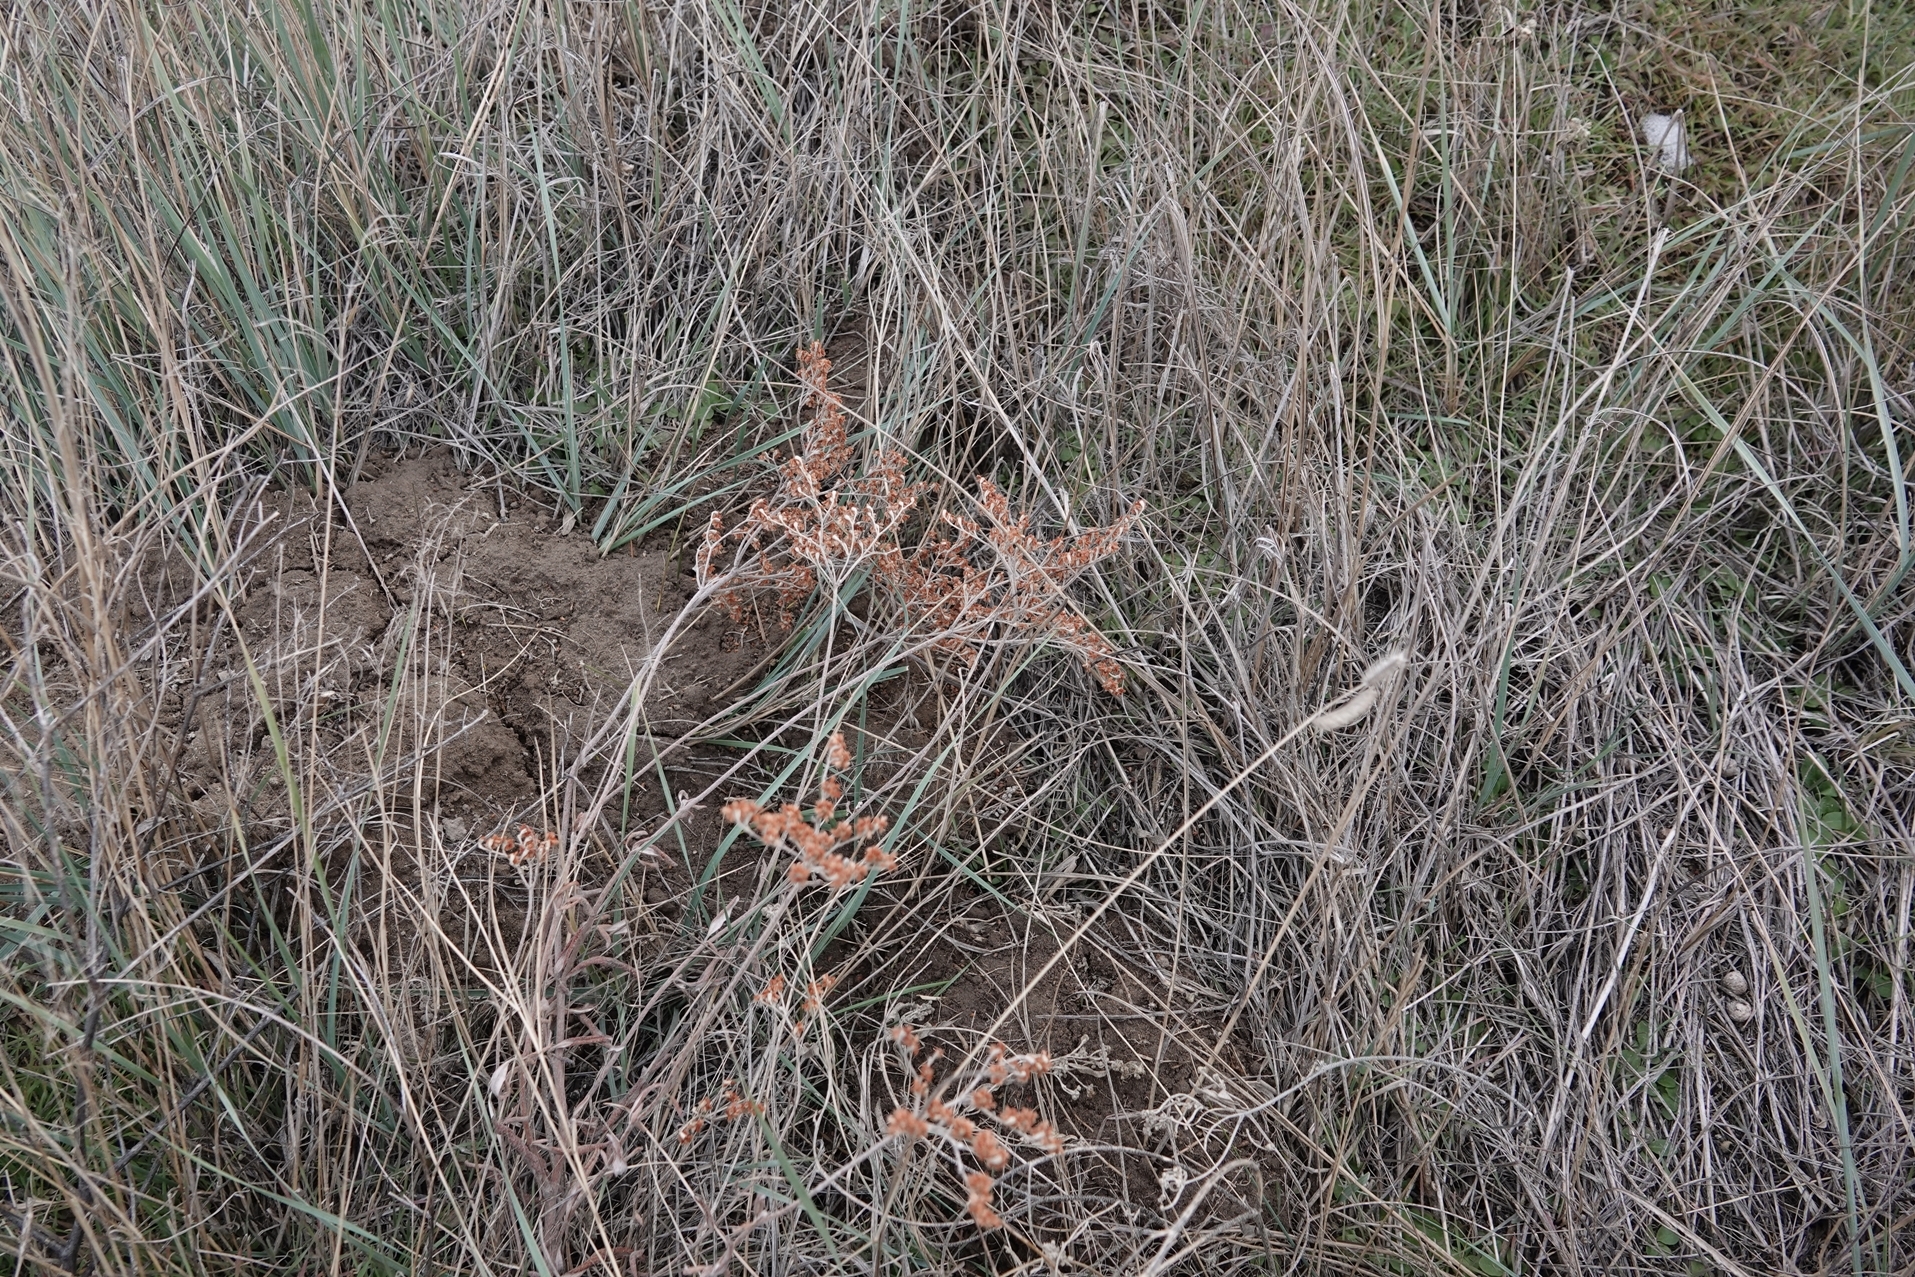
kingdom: Plantae
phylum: Tracheophyta
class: Magnoliopsida
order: Caryophyllales
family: Polygonaceae
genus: Eriogonum
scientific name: Eriogonum annuum
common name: Annual wild buckwheat
